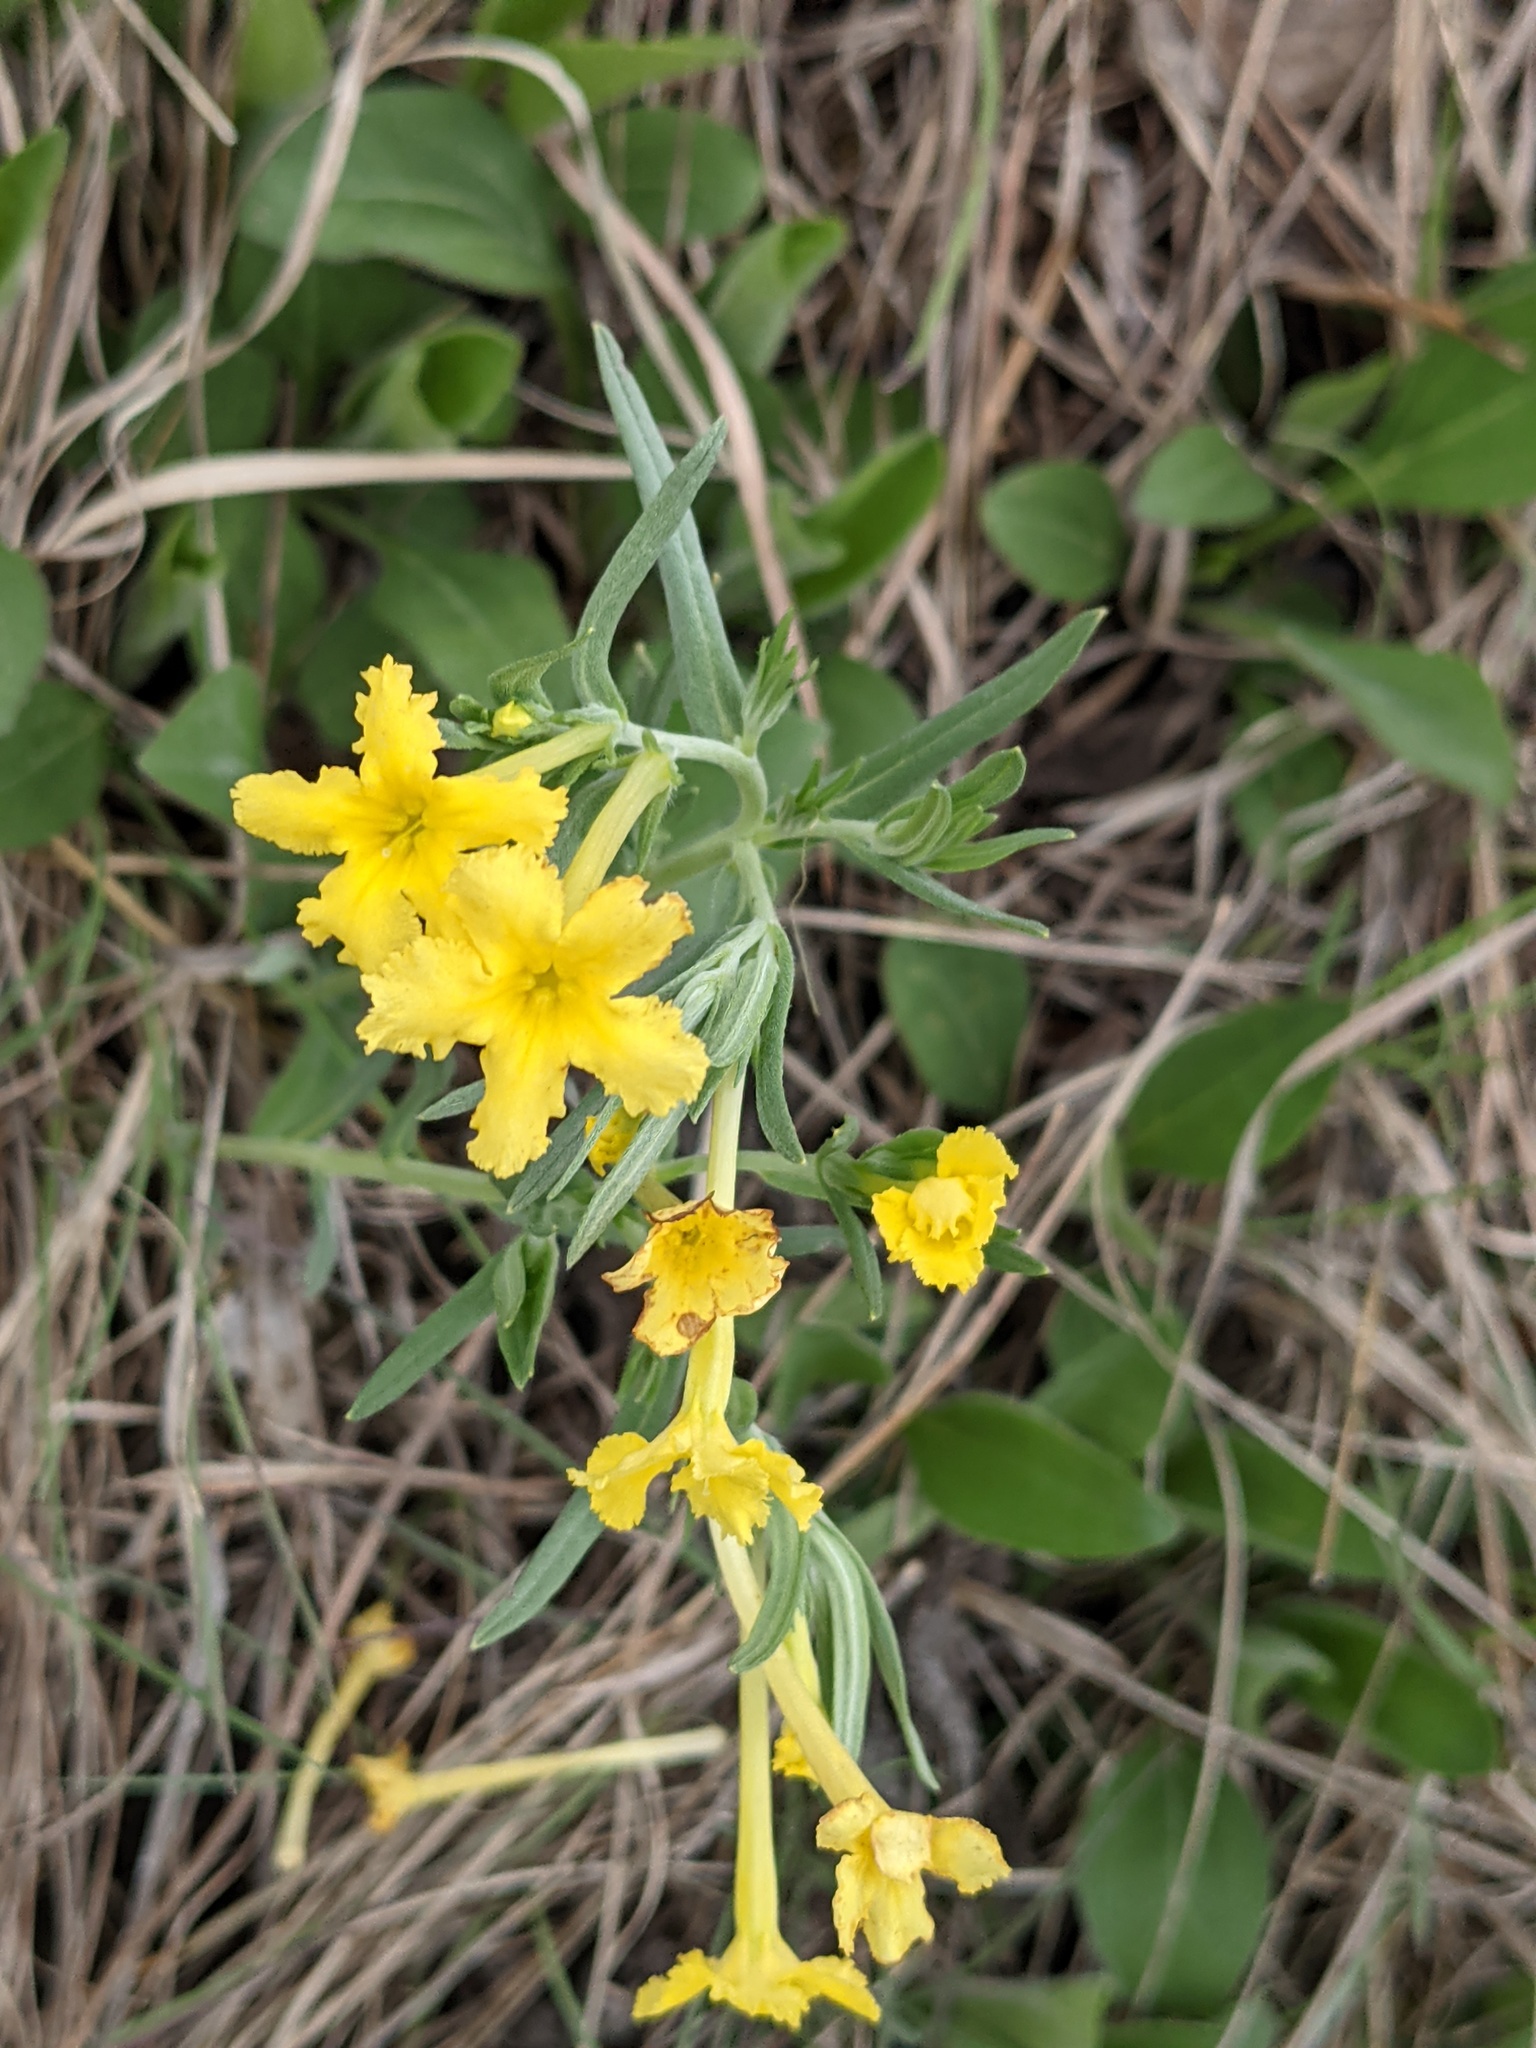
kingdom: Plantae
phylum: Tracheophyta
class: Magnoliopsida
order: Boraginales
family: Boraginaceae
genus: Lithospermum
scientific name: Lithospermum incisum
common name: Fringed gromwell
